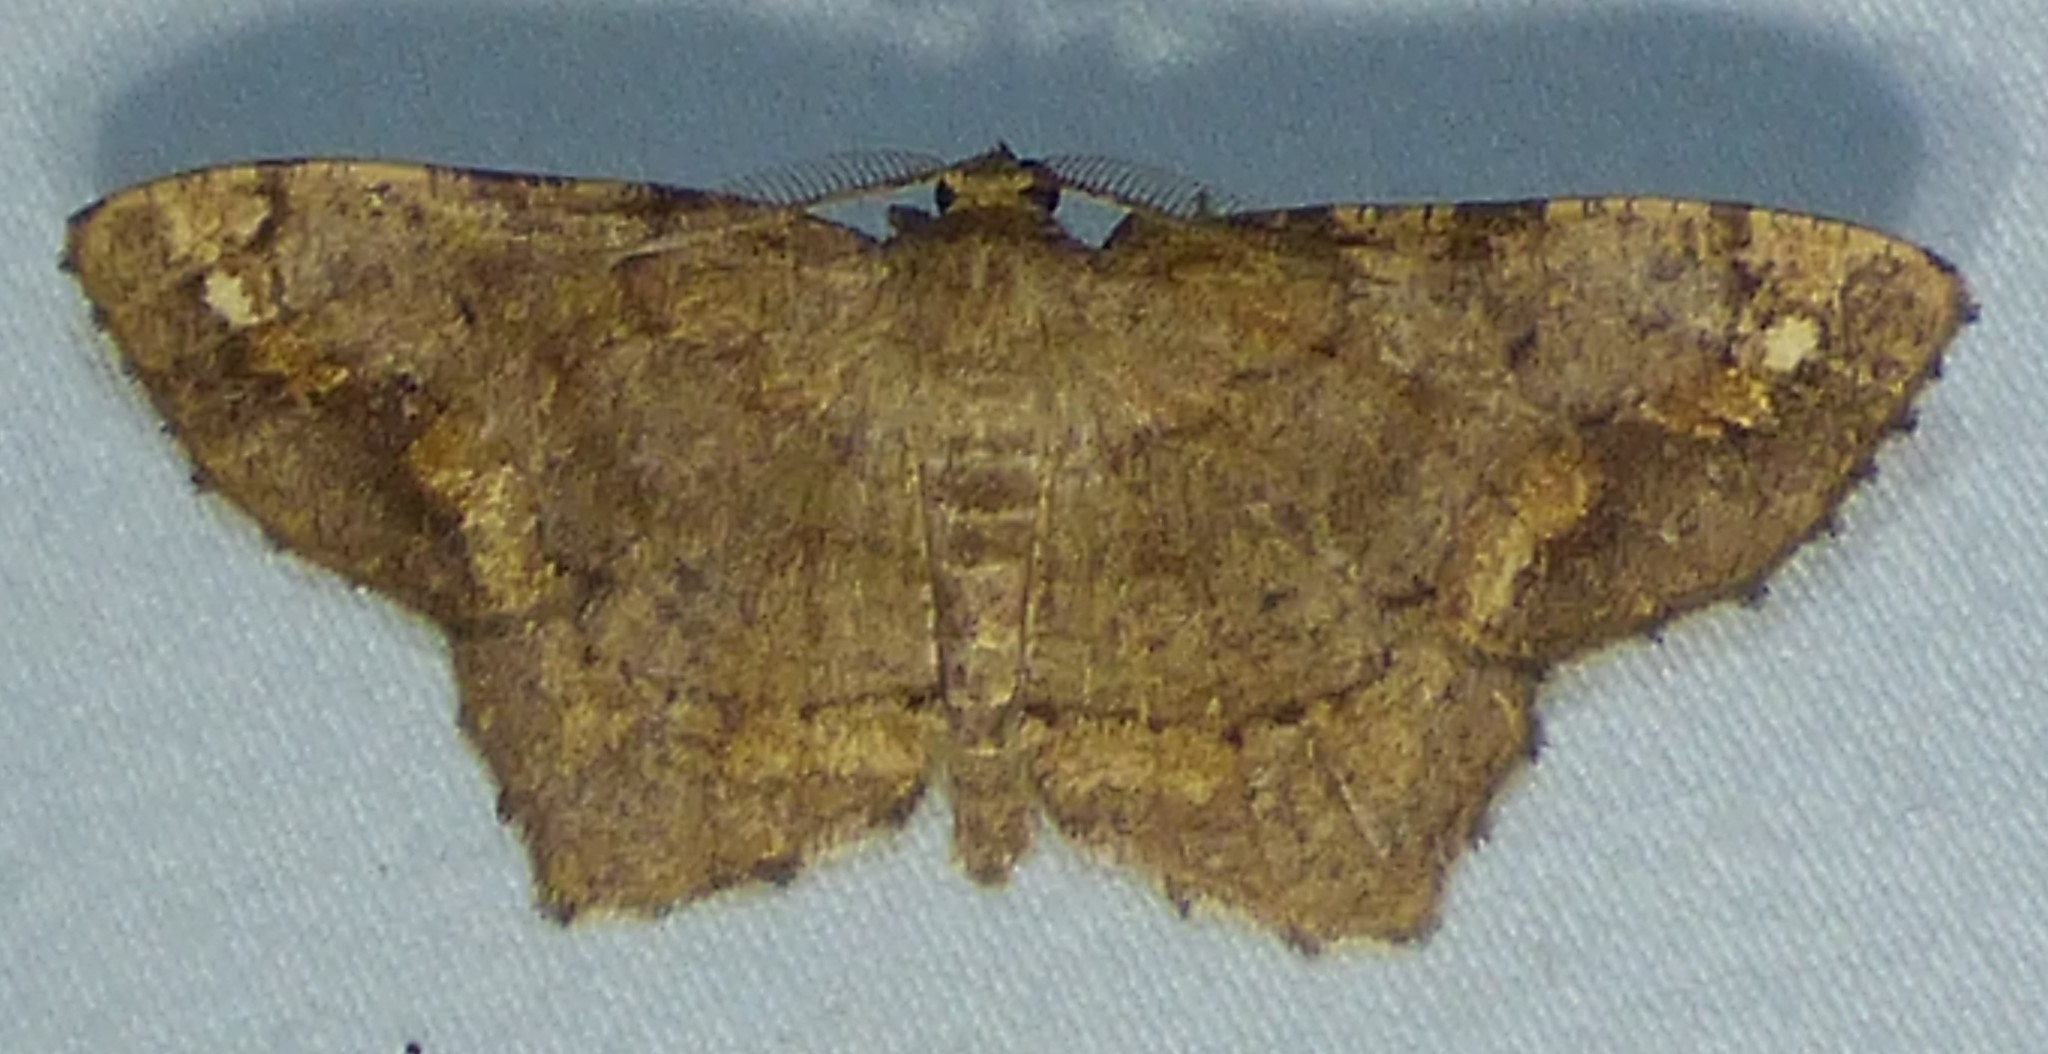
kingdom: Animalia
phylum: Arthropoda
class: Insecta
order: Lepidoptera
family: Geometridae
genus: Hypagyrtis
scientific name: Hypagyrtis unipunctata
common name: One-spotted variant
